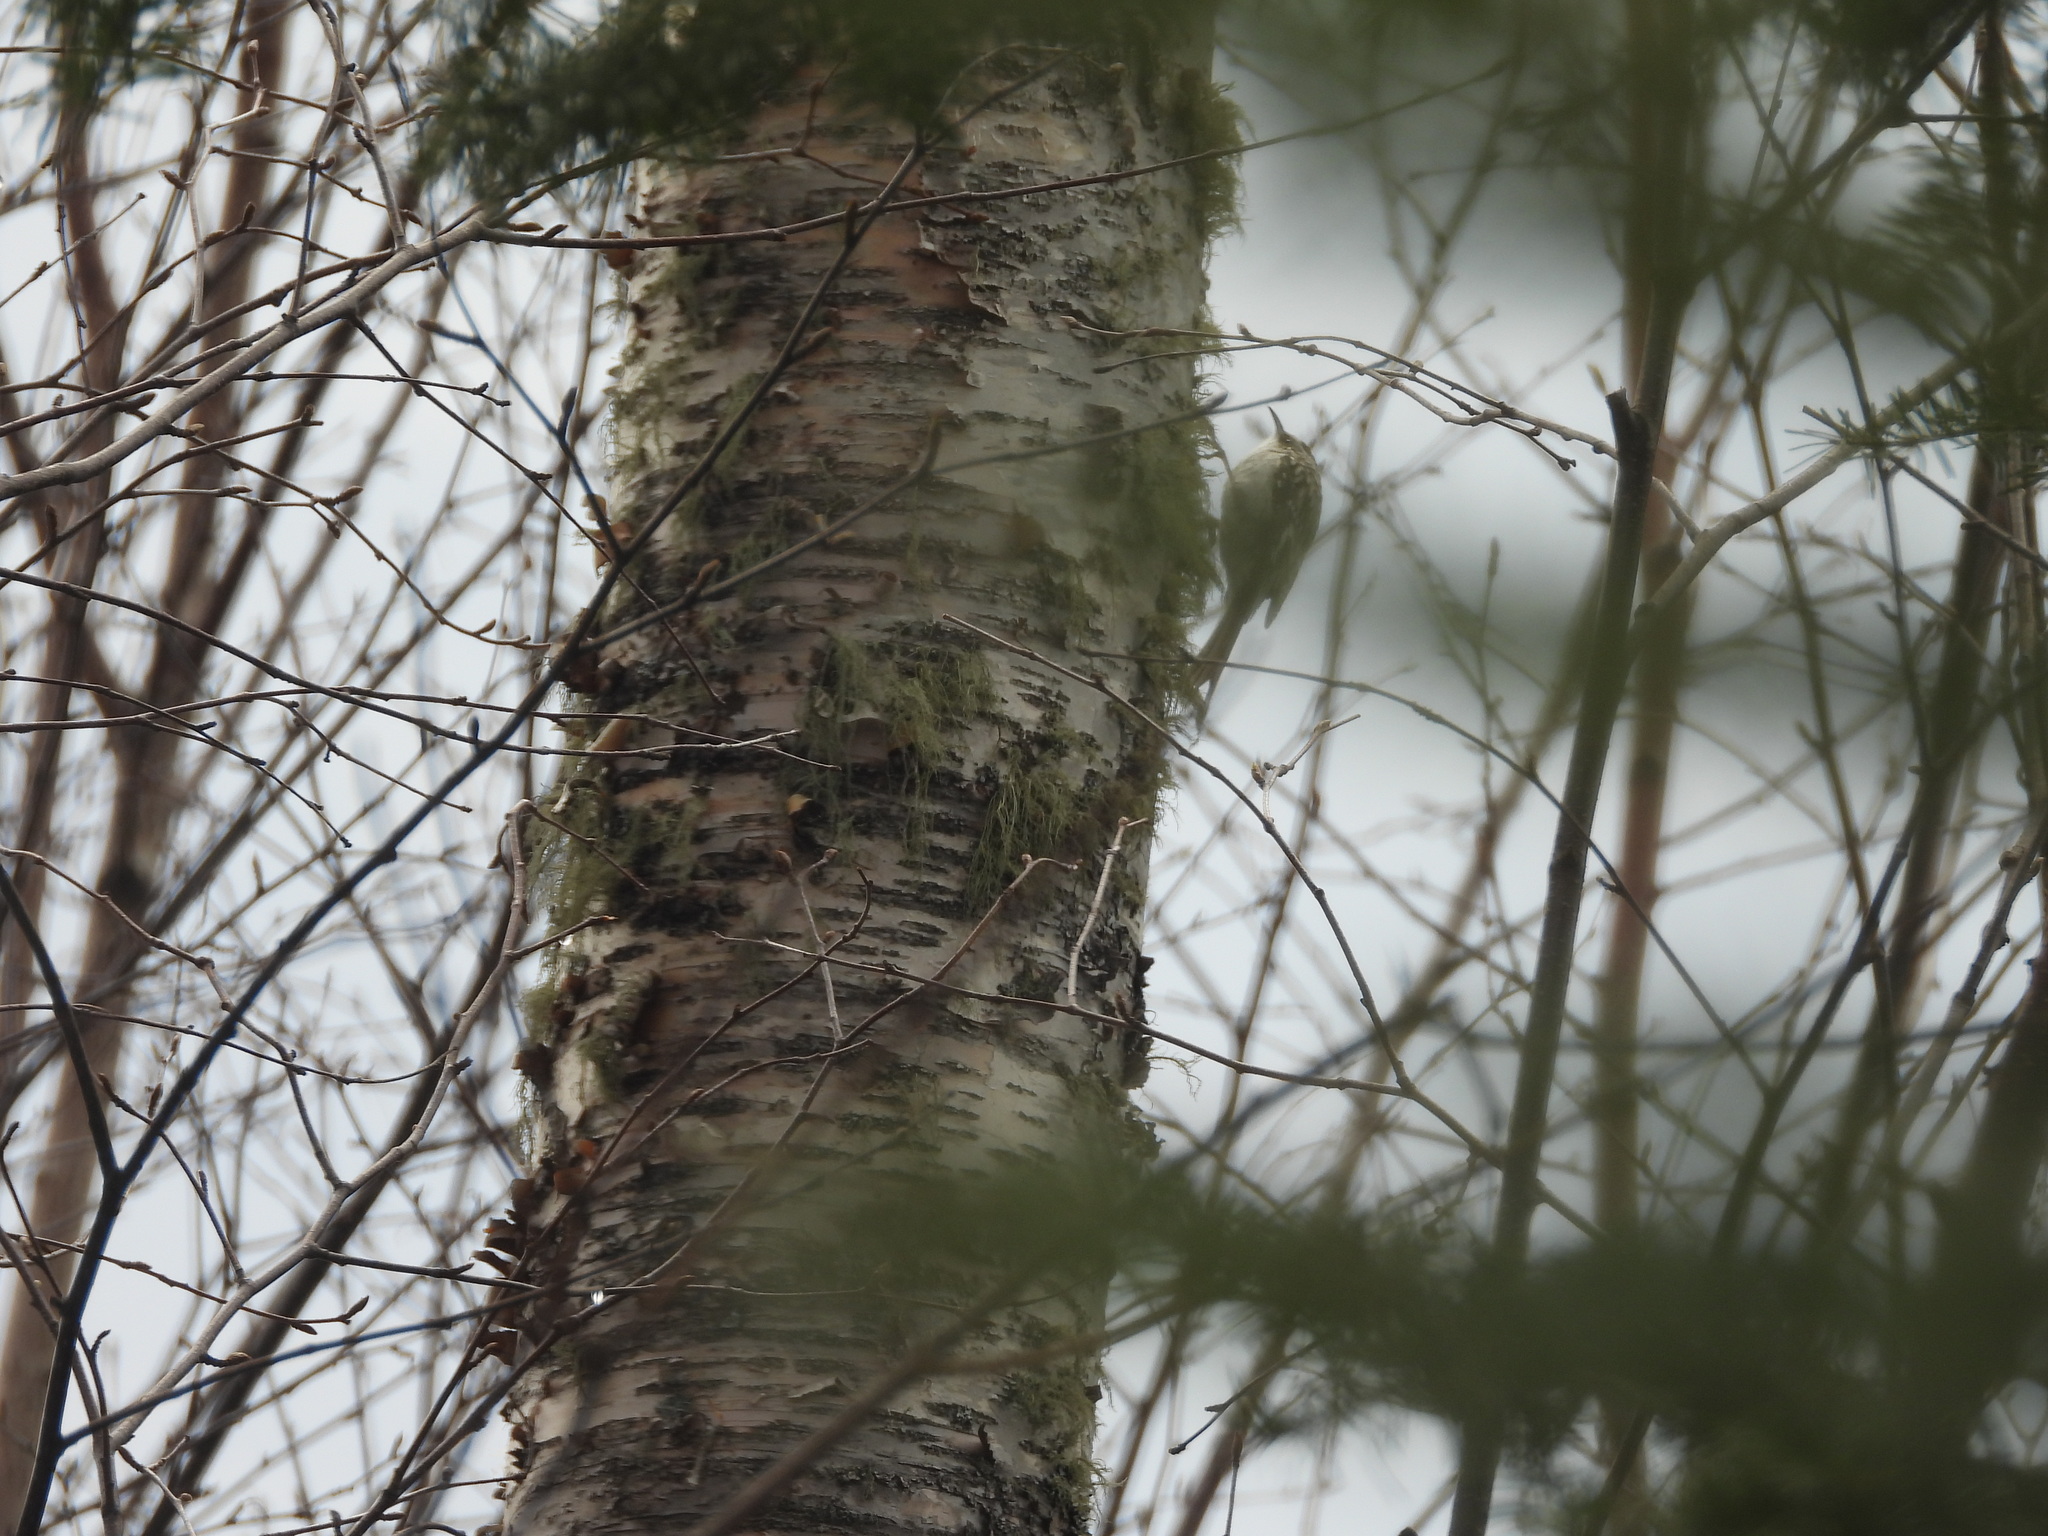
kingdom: Animalia
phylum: Chordata
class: Aves
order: Passeriformes
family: Certhiidae
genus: Certhia
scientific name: Certhia americana
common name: Brown creeper
